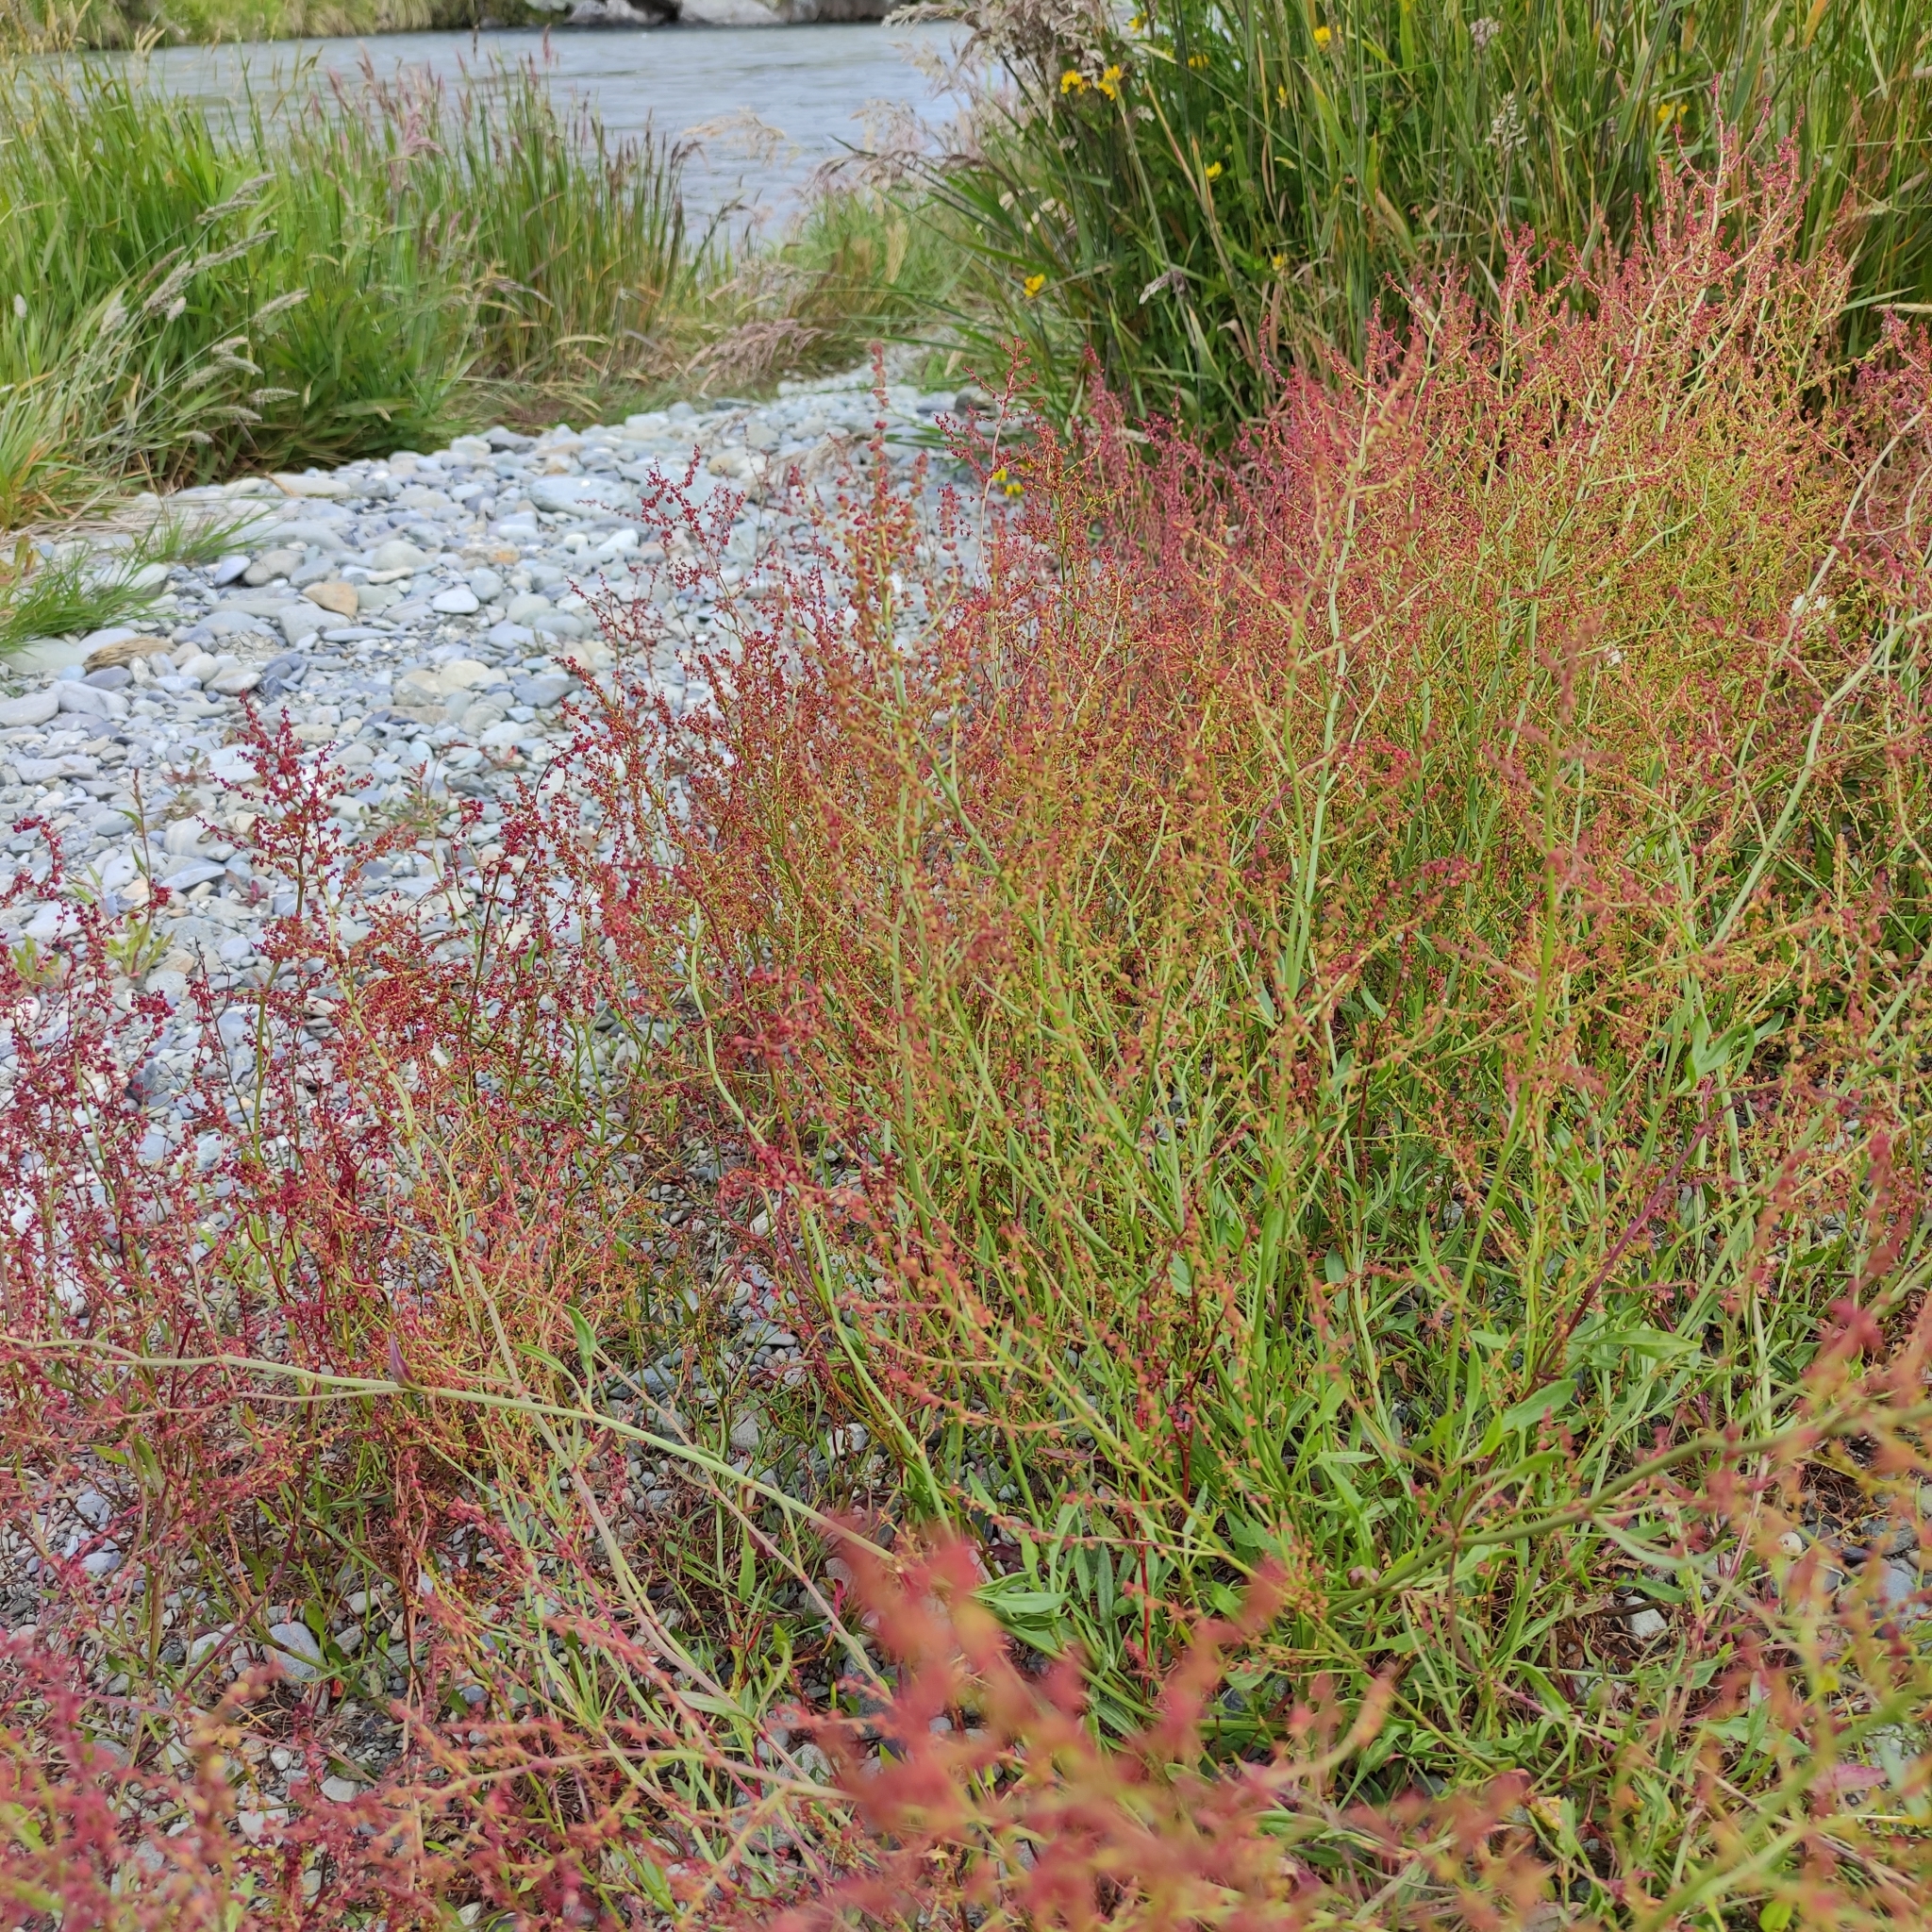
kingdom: Plantae
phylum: Tracheophyta
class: Magnoliopsida
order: Caryophyllales
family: Polygonaceae
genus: Rumex
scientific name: Rumex acetosella
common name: Common sheep sorrel
